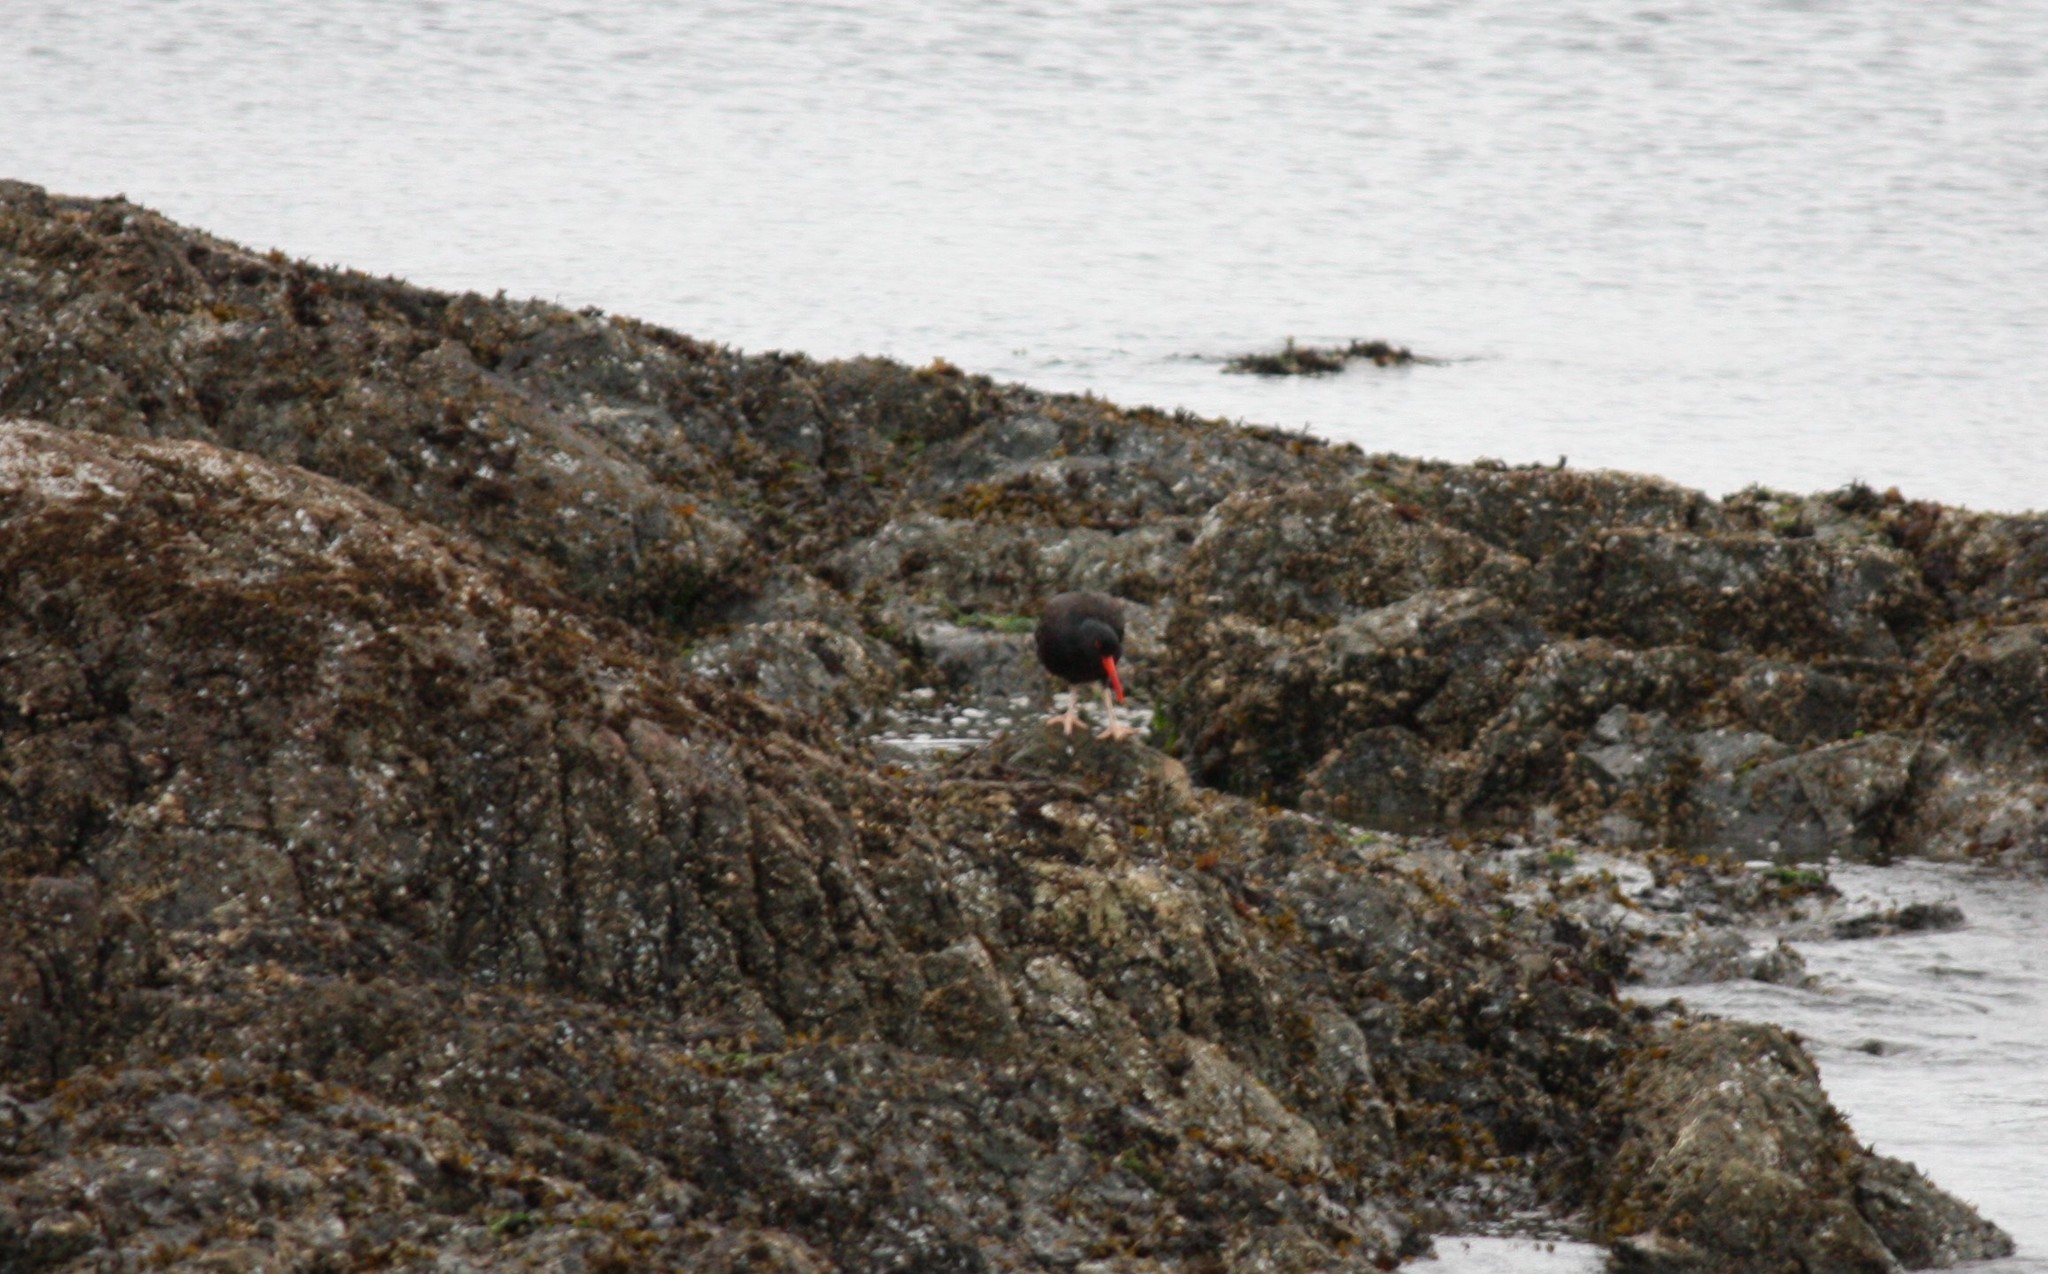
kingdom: Animalia
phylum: Chordata
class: Aves
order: Charadriiformes
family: Haematopodidae
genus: Haematopus
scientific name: Haematopus bachmani
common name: Black oystercatcher
